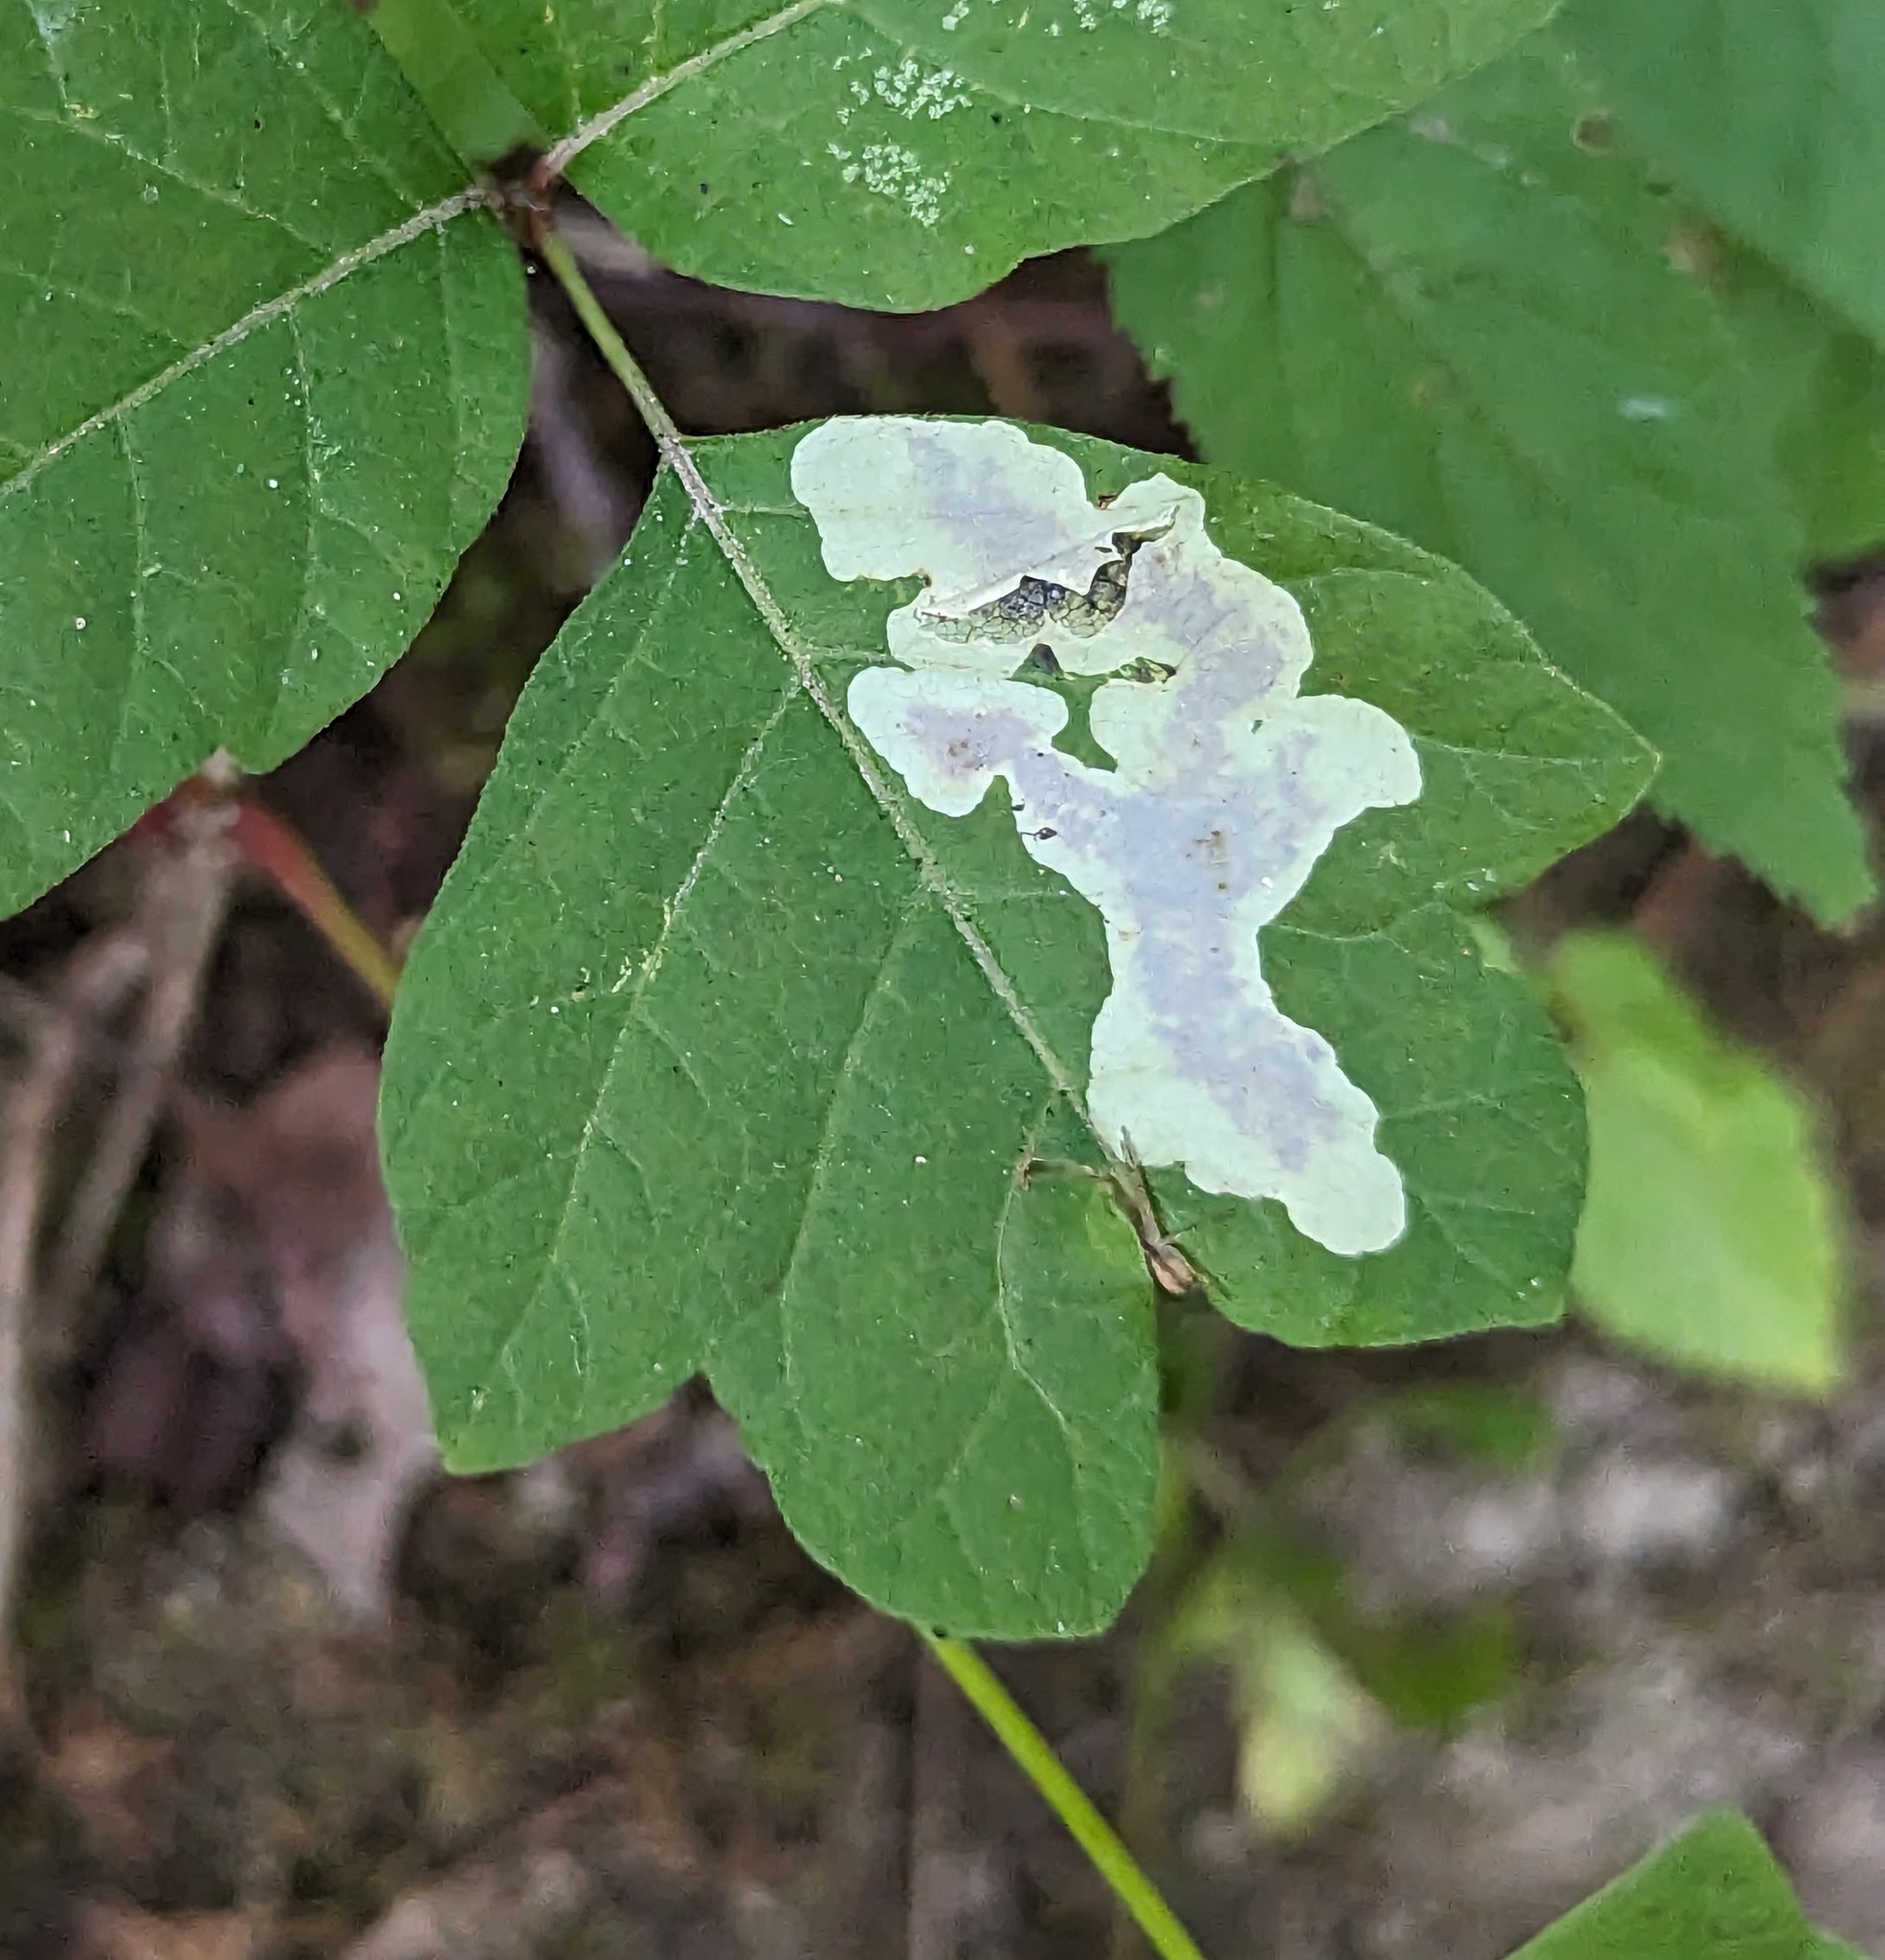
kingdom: Animalia
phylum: Arthropoda
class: Insecta
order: Lepidoptera
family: Gracillariidae
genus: Cameraria
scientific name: Cameraria guttifinitella
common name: Poison ivy leaf-miner moth
